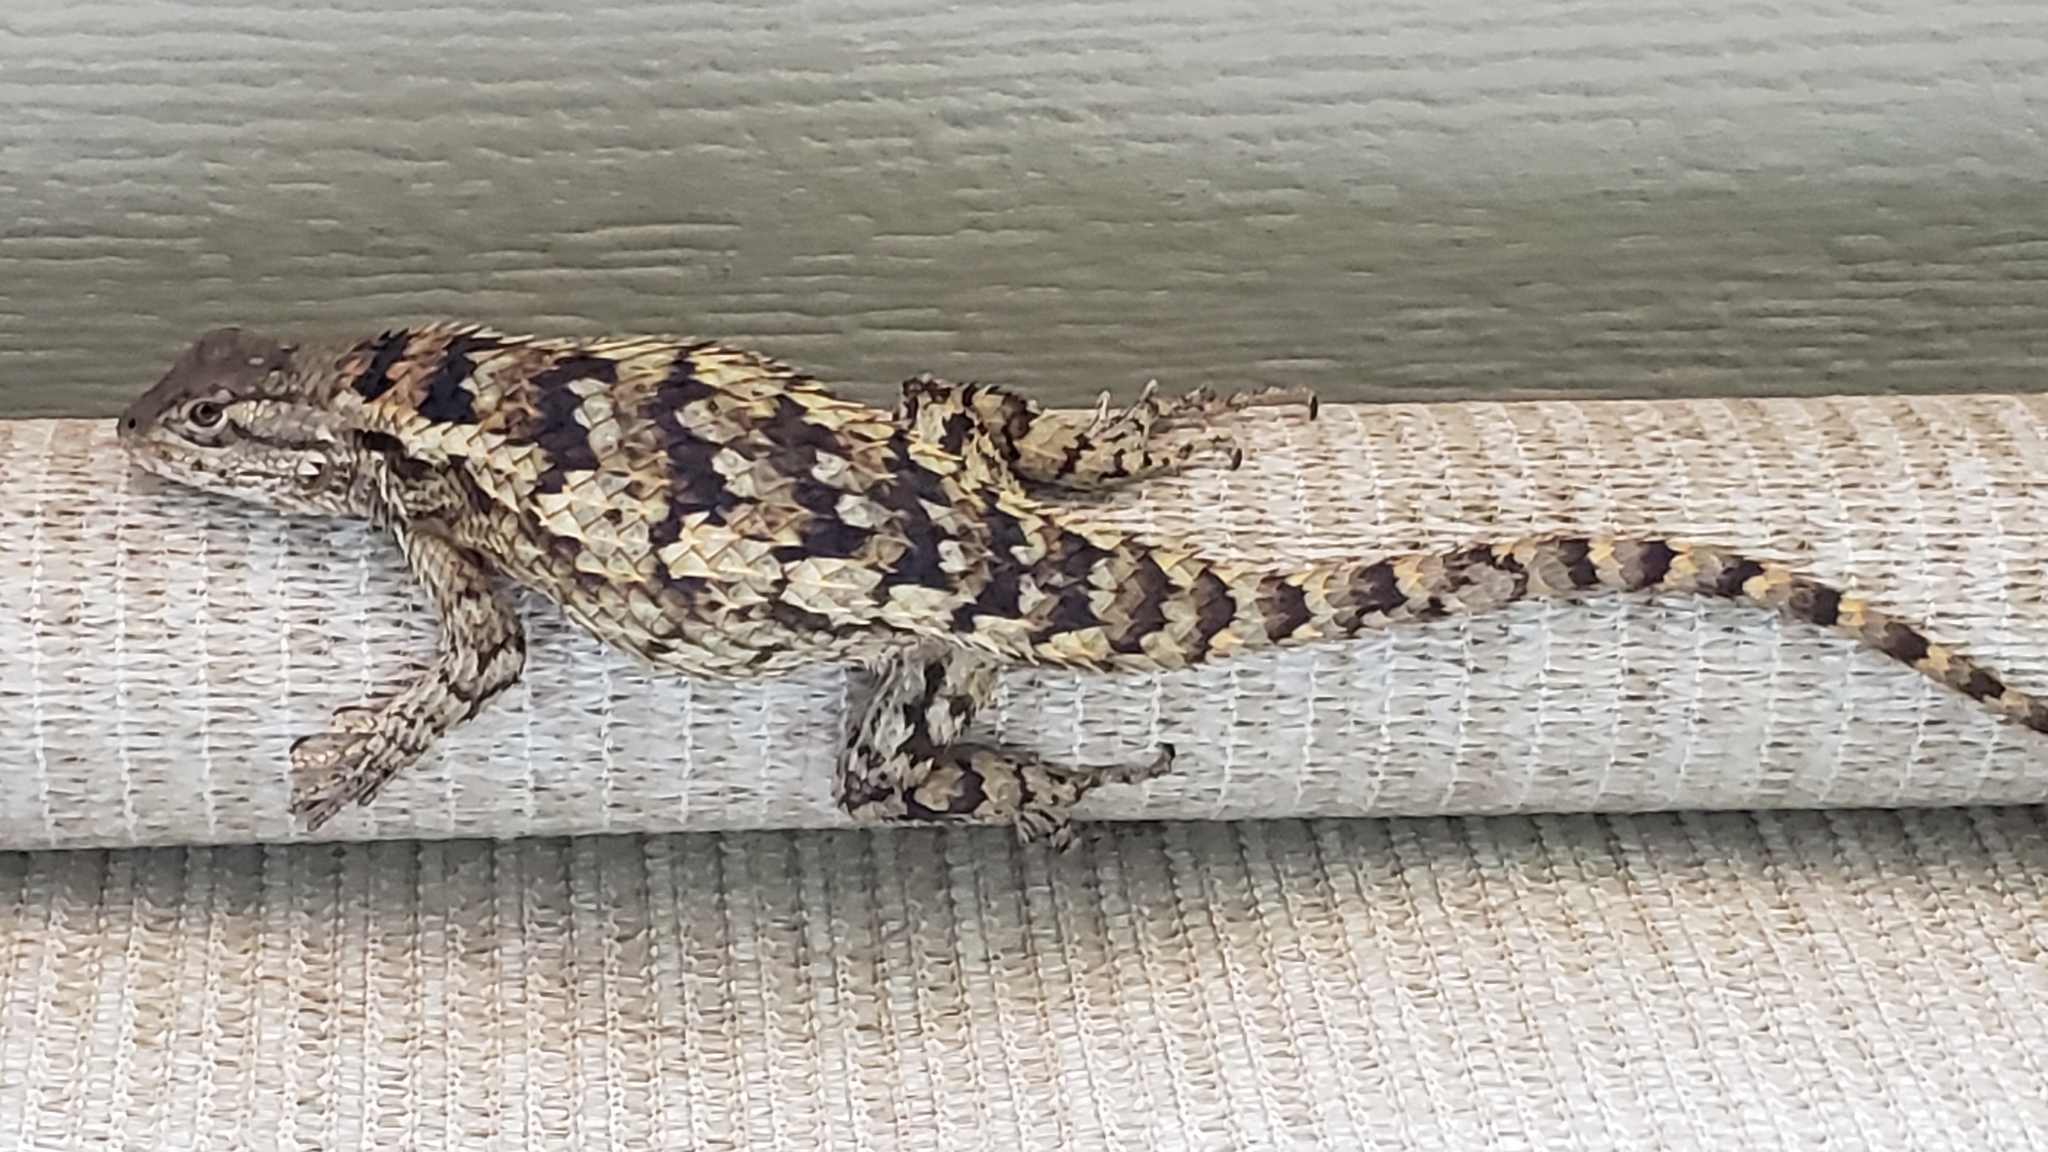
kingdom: Animalia
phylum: Chordata
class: Squamata
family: Phrynosomatidae
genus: Sceloporus
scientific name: Sceloporus olivaceus
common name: Texas spiny lizard
